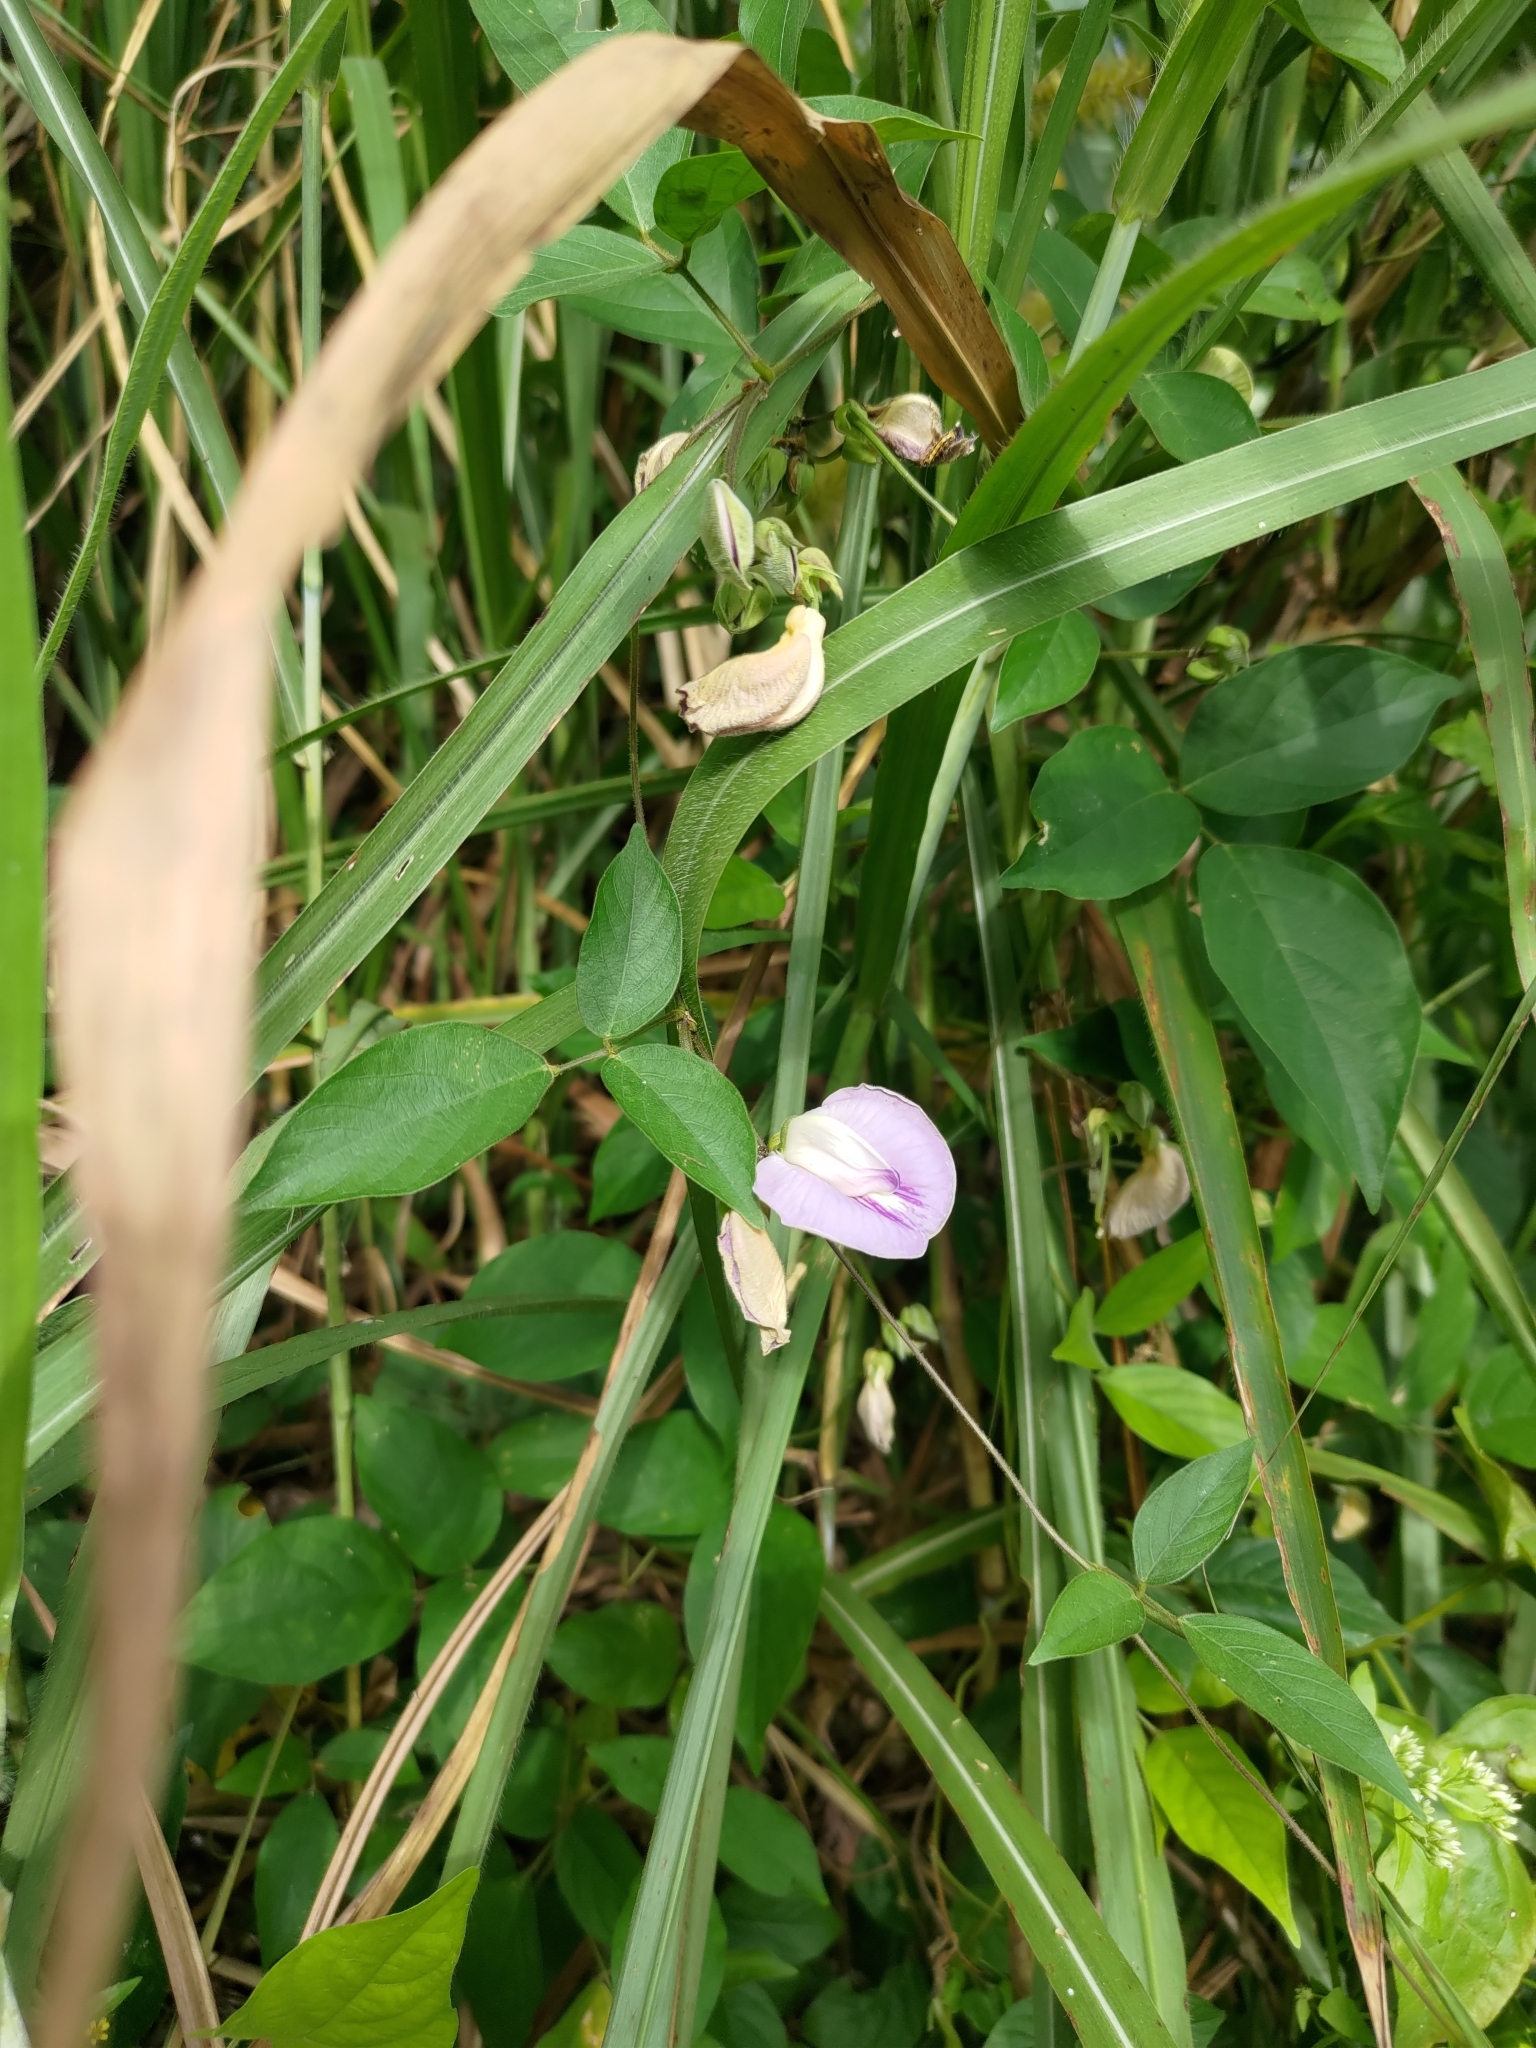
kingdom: Plantae
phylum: Tracheophyta
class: Magnoliopsida
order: Fabales
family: Fabaceae
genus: Centrosema
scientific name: Centrosema pubescens
